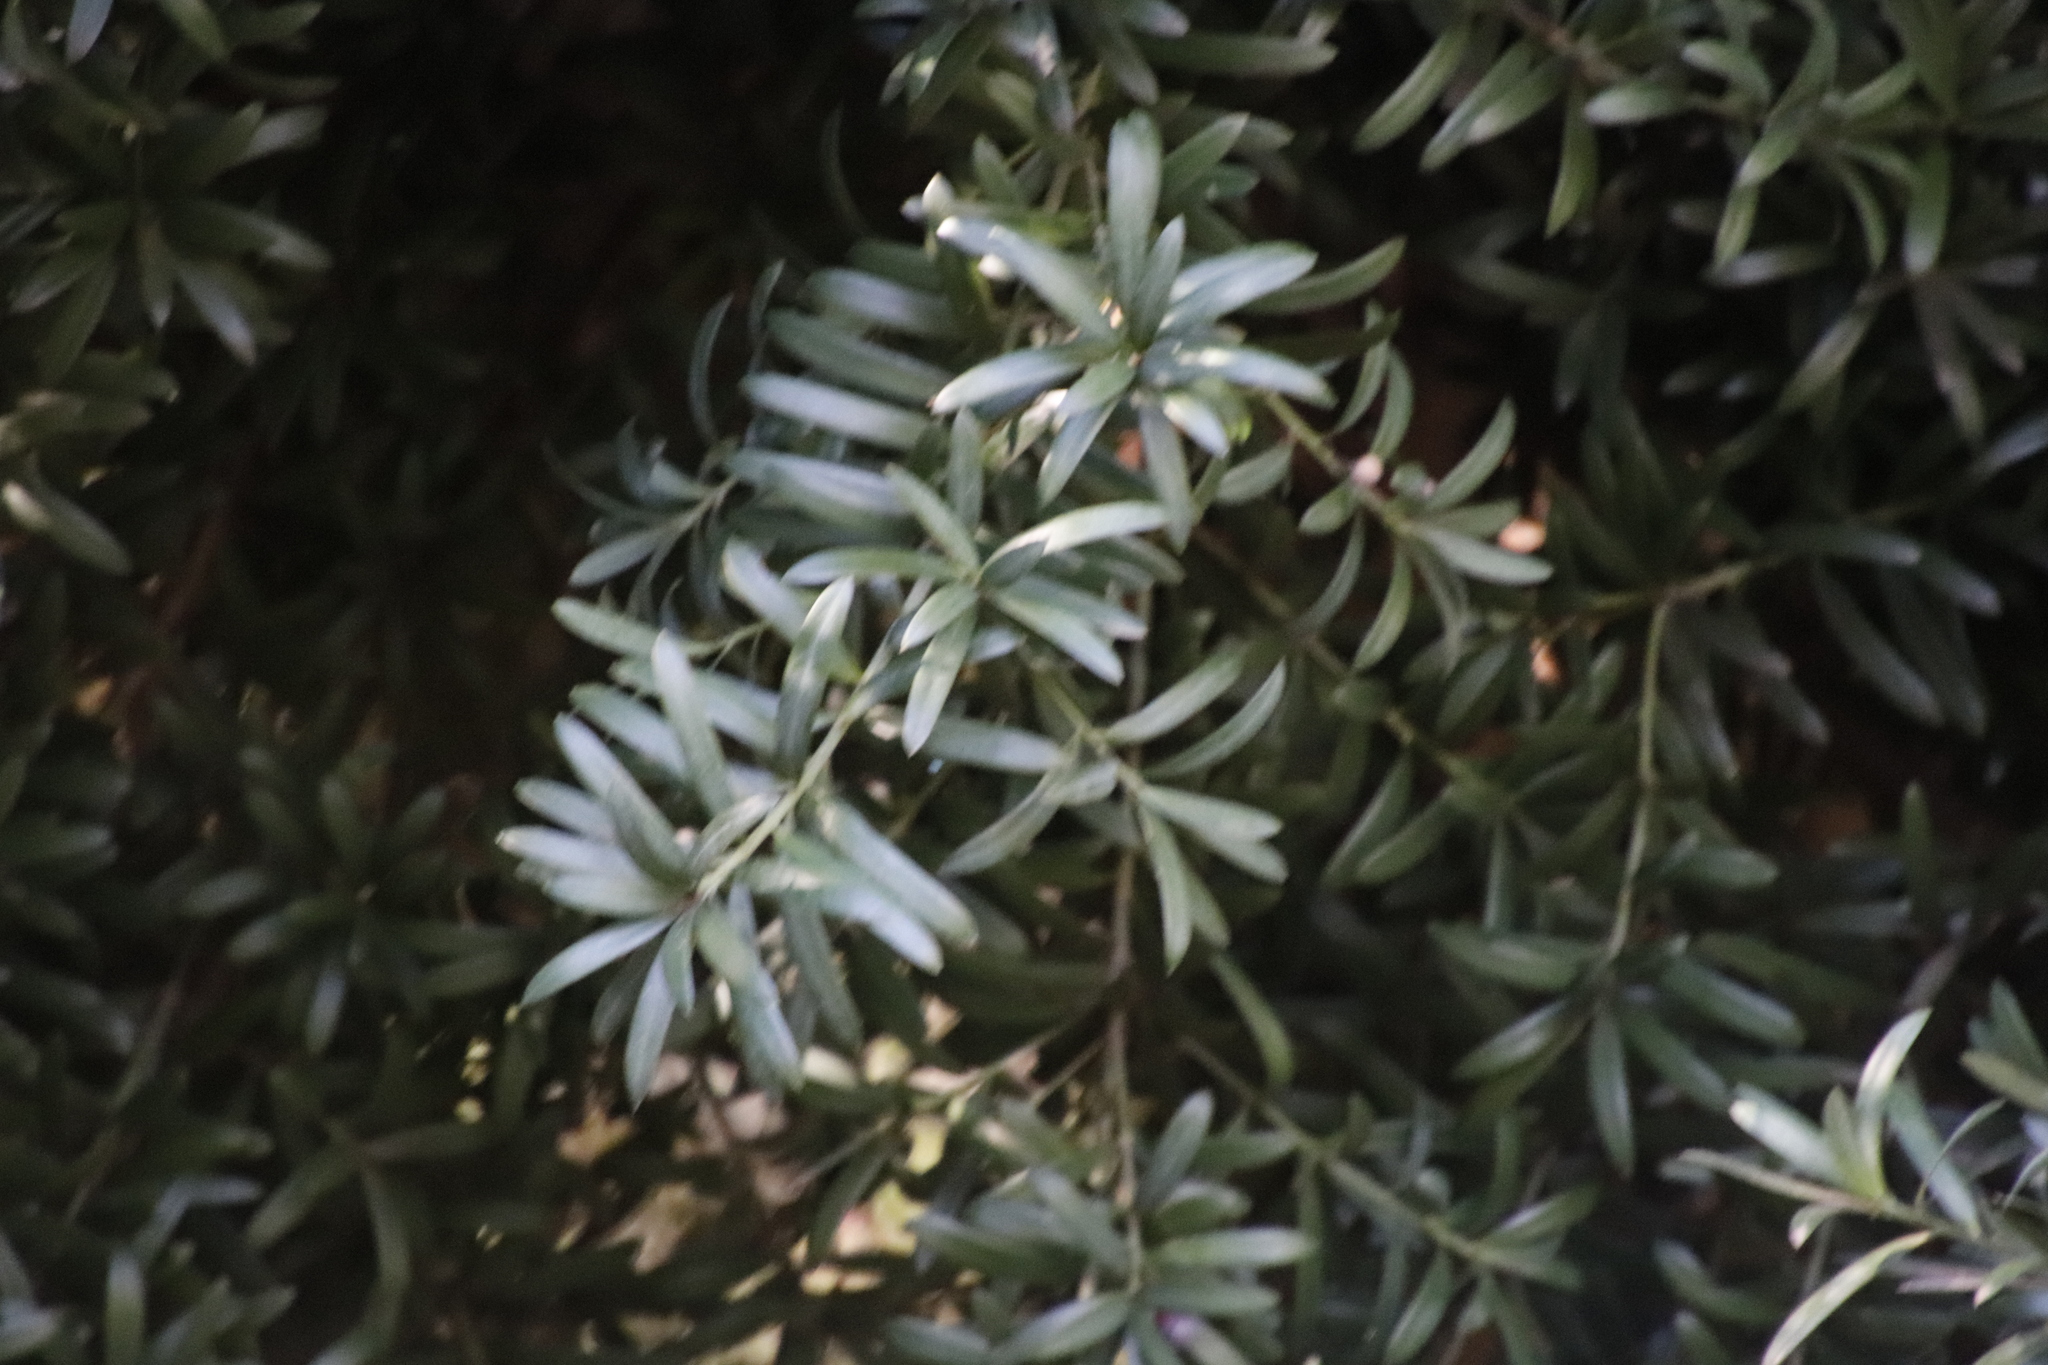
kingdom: Plantae
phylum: Tracheophyta
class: Pinopsida
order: Pinales
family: Podocarpaceae
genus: Podocarpus
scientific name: Podocarpus latifolius
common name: True yellowwood
